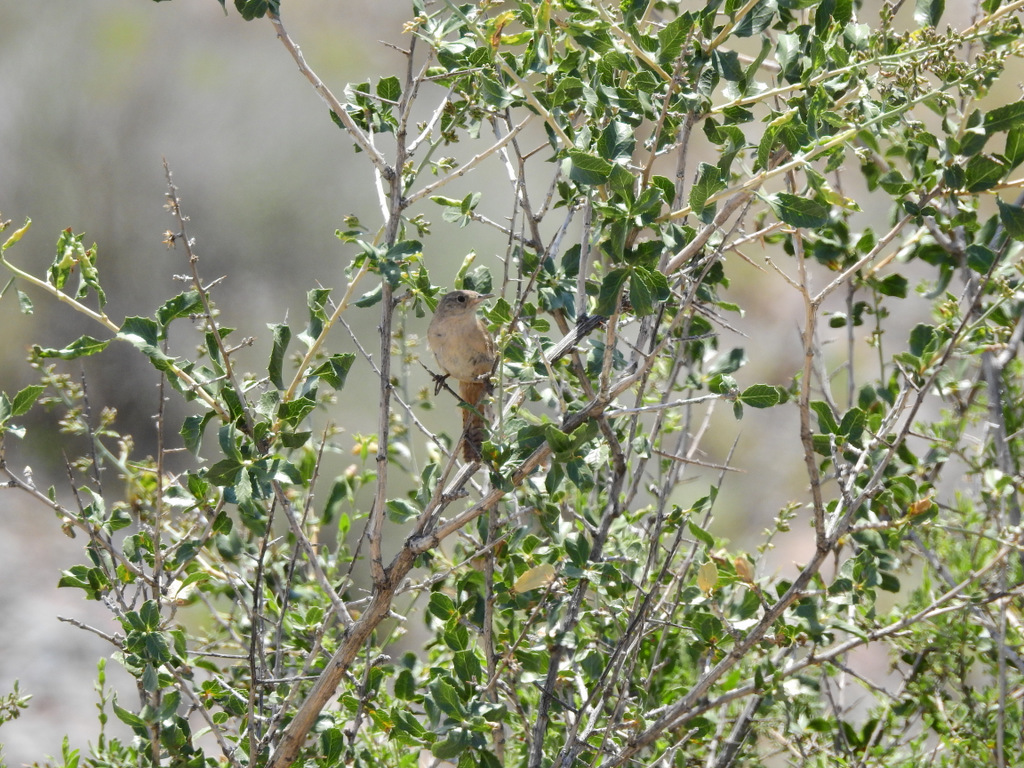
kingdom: Animalia
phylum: Chordata
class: Aves
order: Passeriformes
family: Troglodytidae
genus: Troglodytes
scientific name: Troglodytes aedon
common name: House wren
